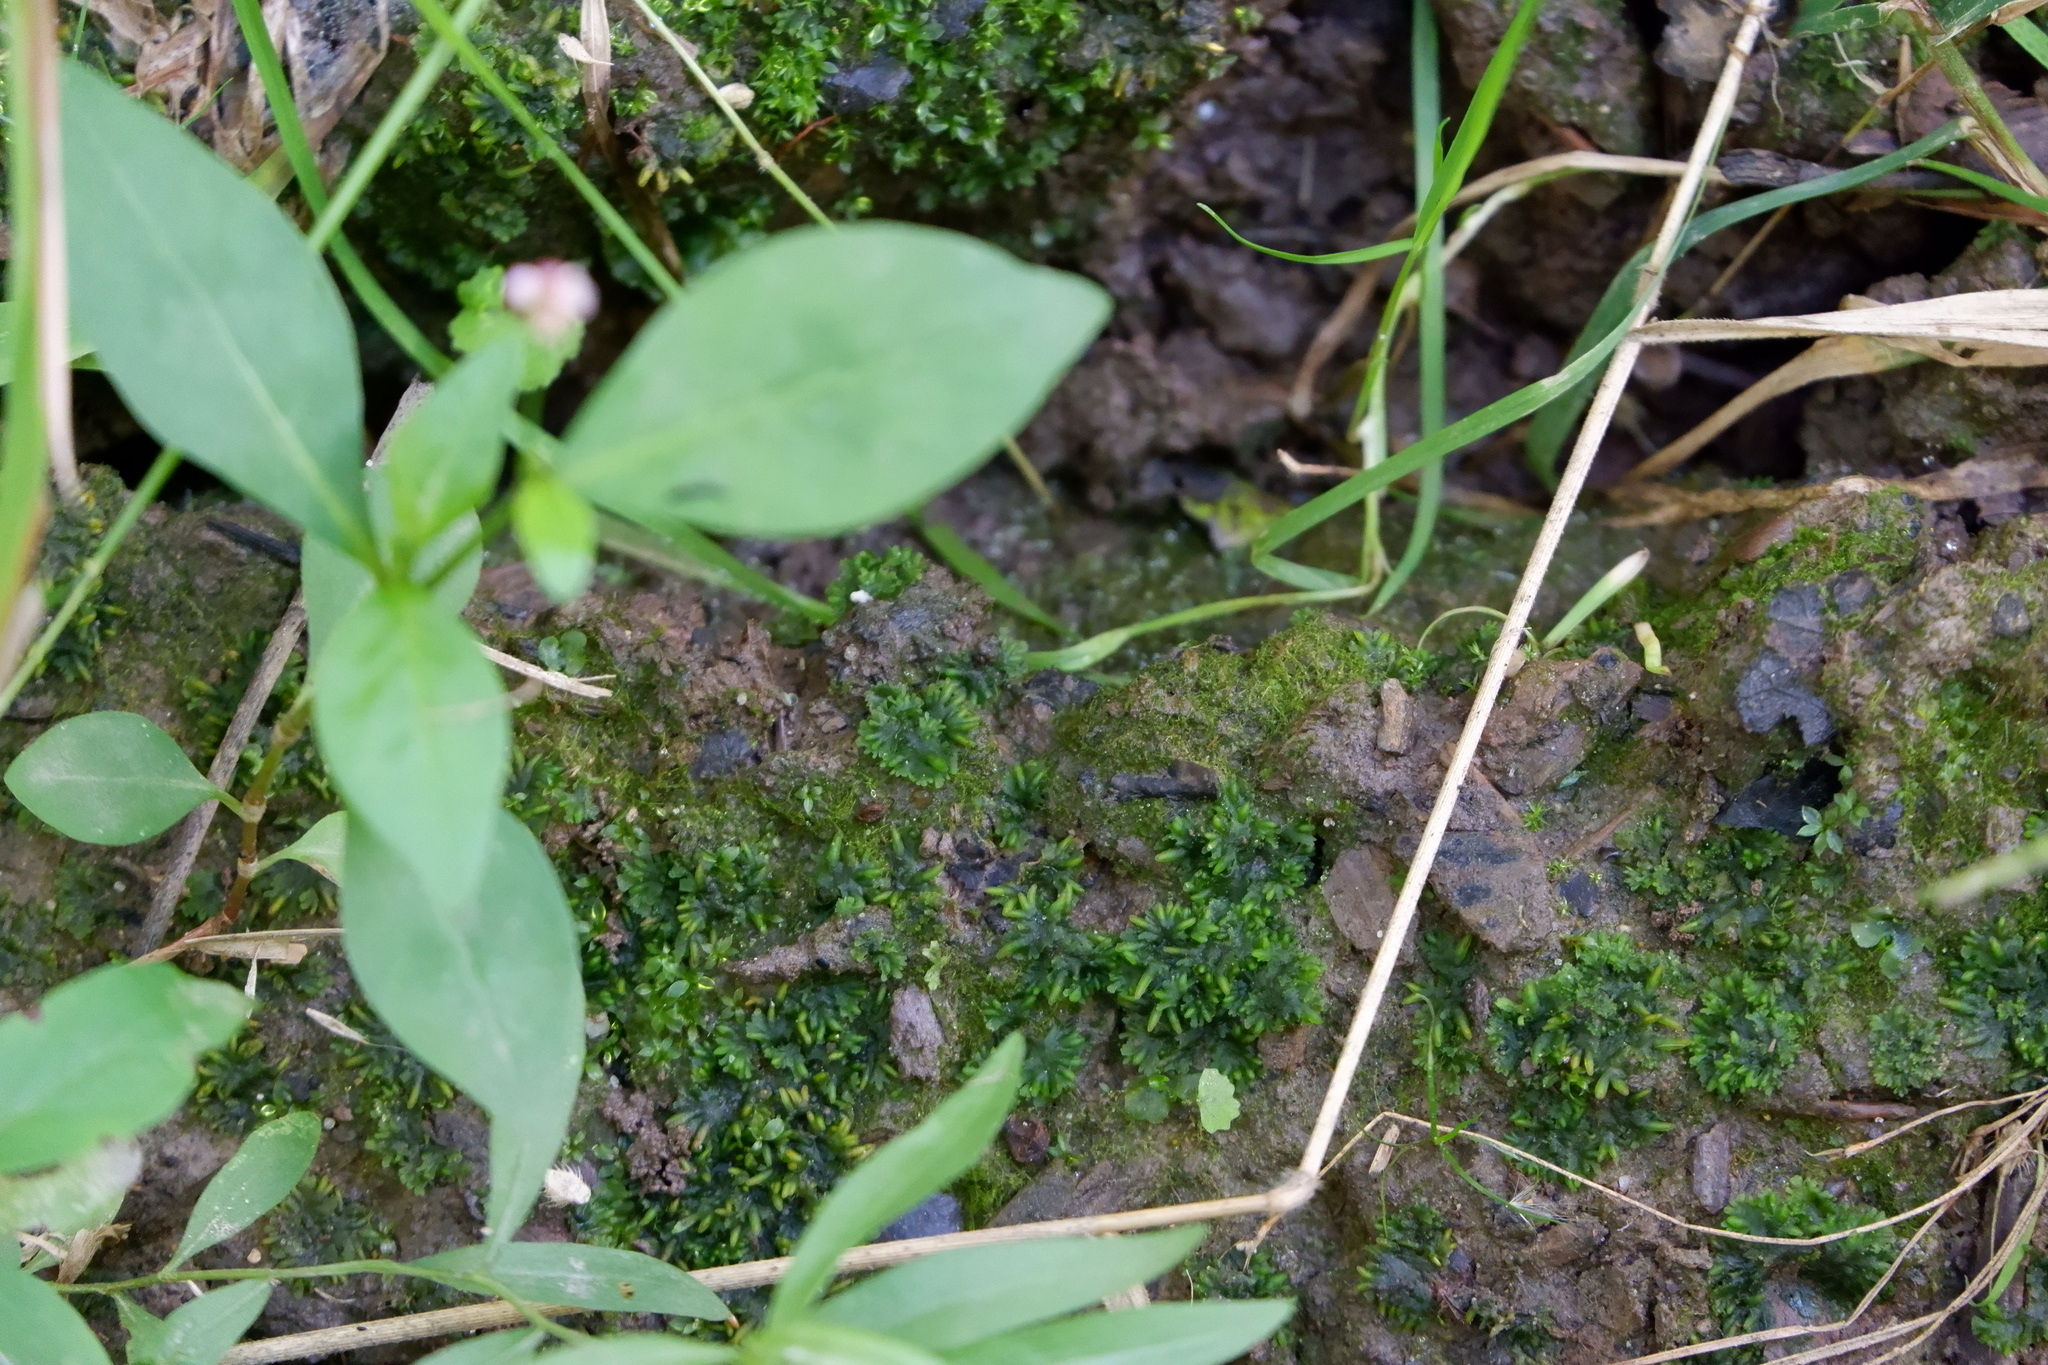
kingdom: Plantae
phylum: Anthocerotophyta
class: Anthocerotopsida
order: Notothyladales
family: Notothyladaceae
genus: Notothylas
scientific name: Notothylas orbicularis
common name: Short-horned liverwort
